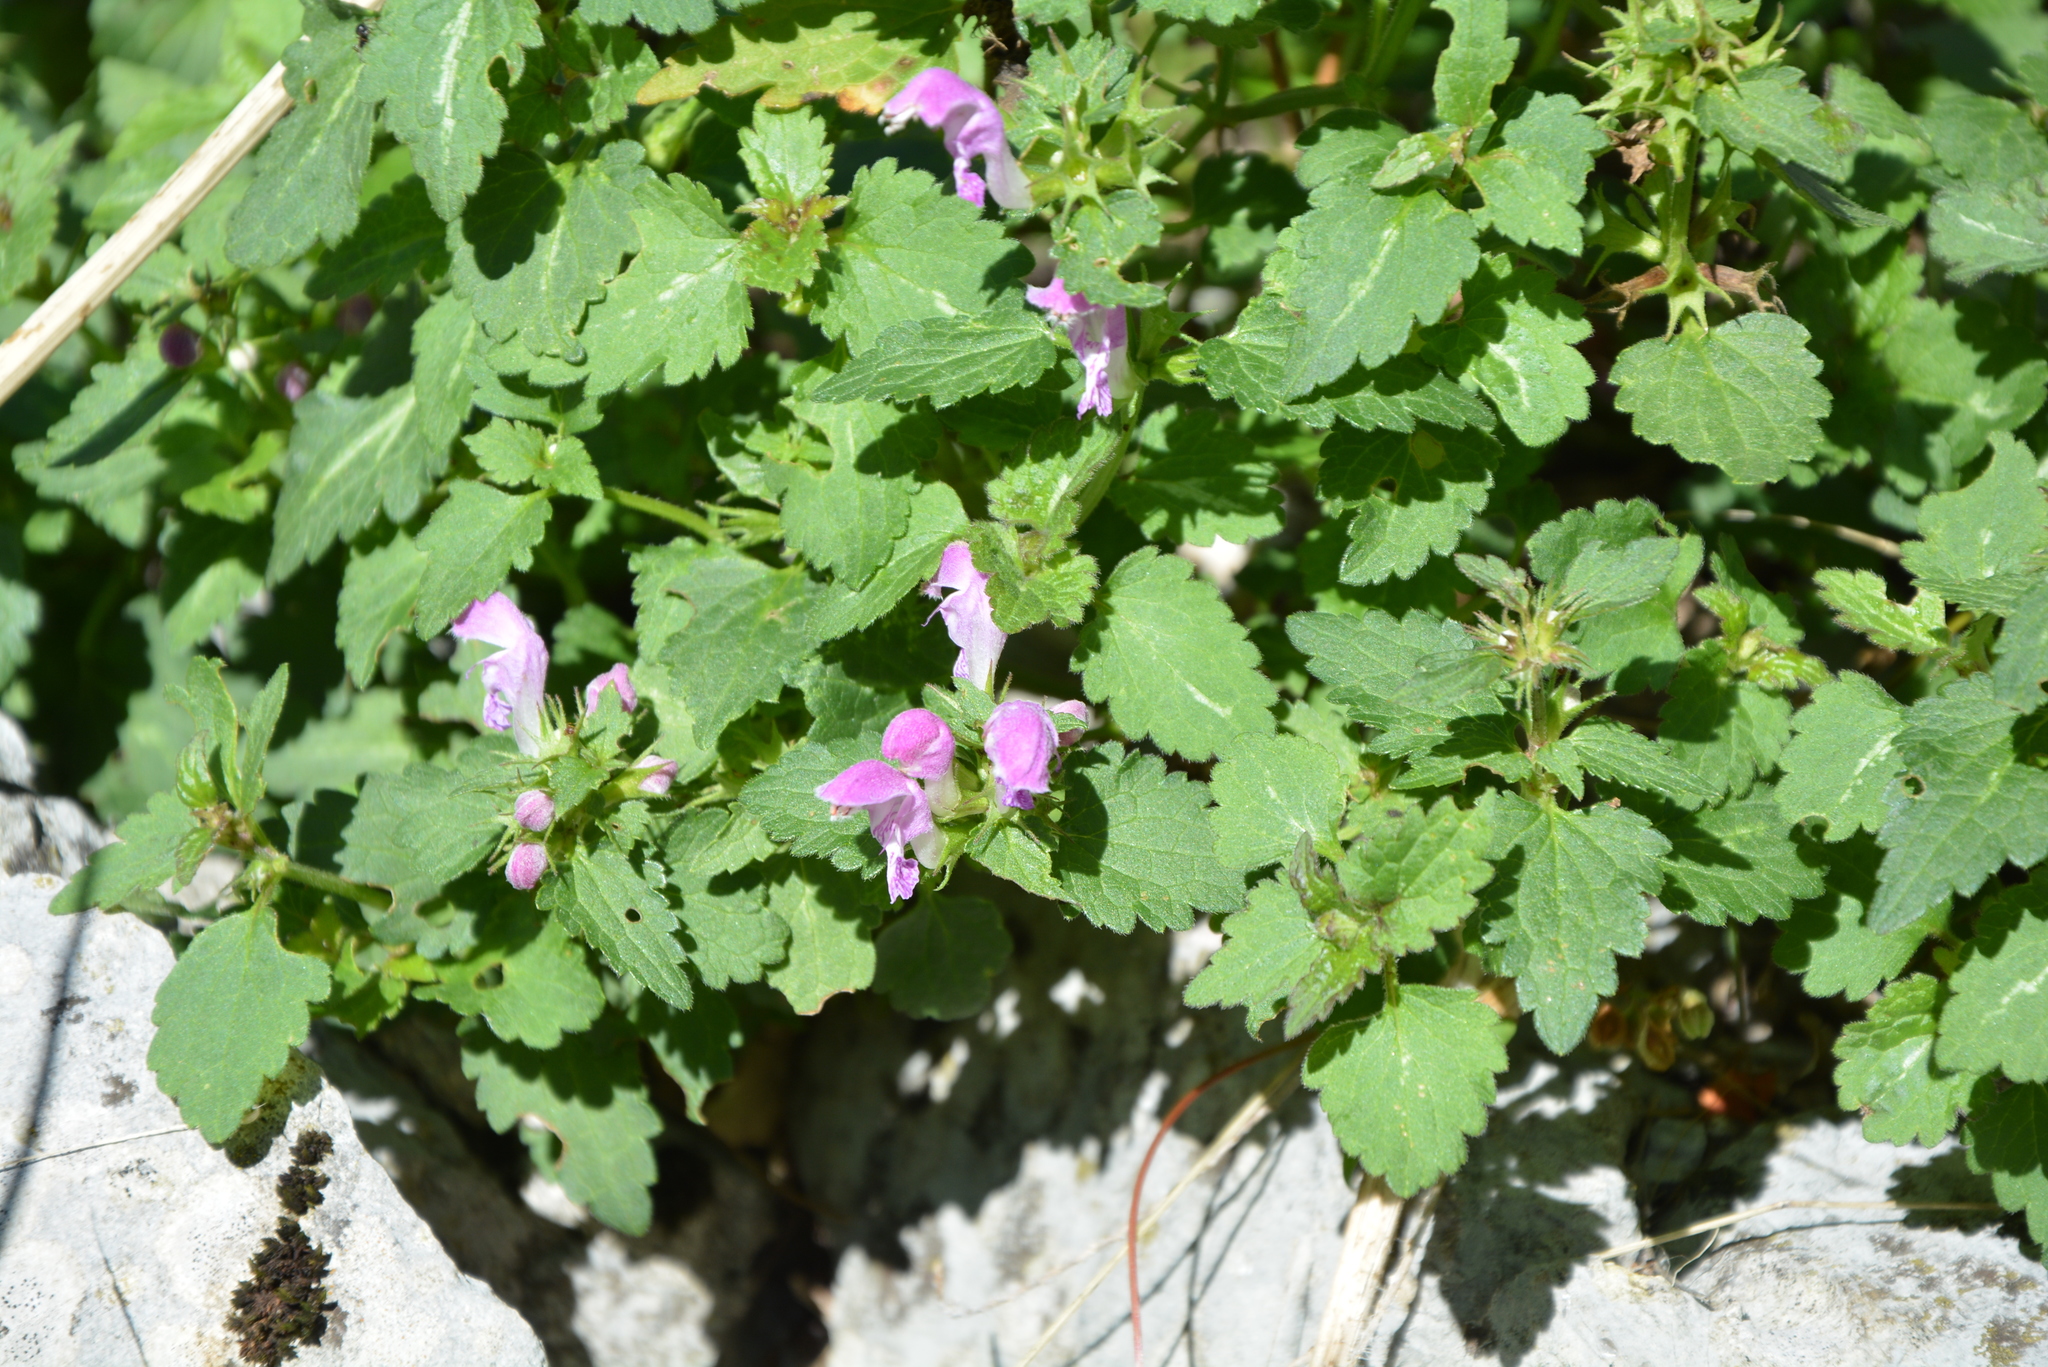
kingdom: Plantae
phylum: Tracheophyta
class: Magnoliopsida
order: Lamiales
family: Lamiaceae
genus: Lamium
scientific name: Lamium maculatum
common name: Spotted dead-nettle
